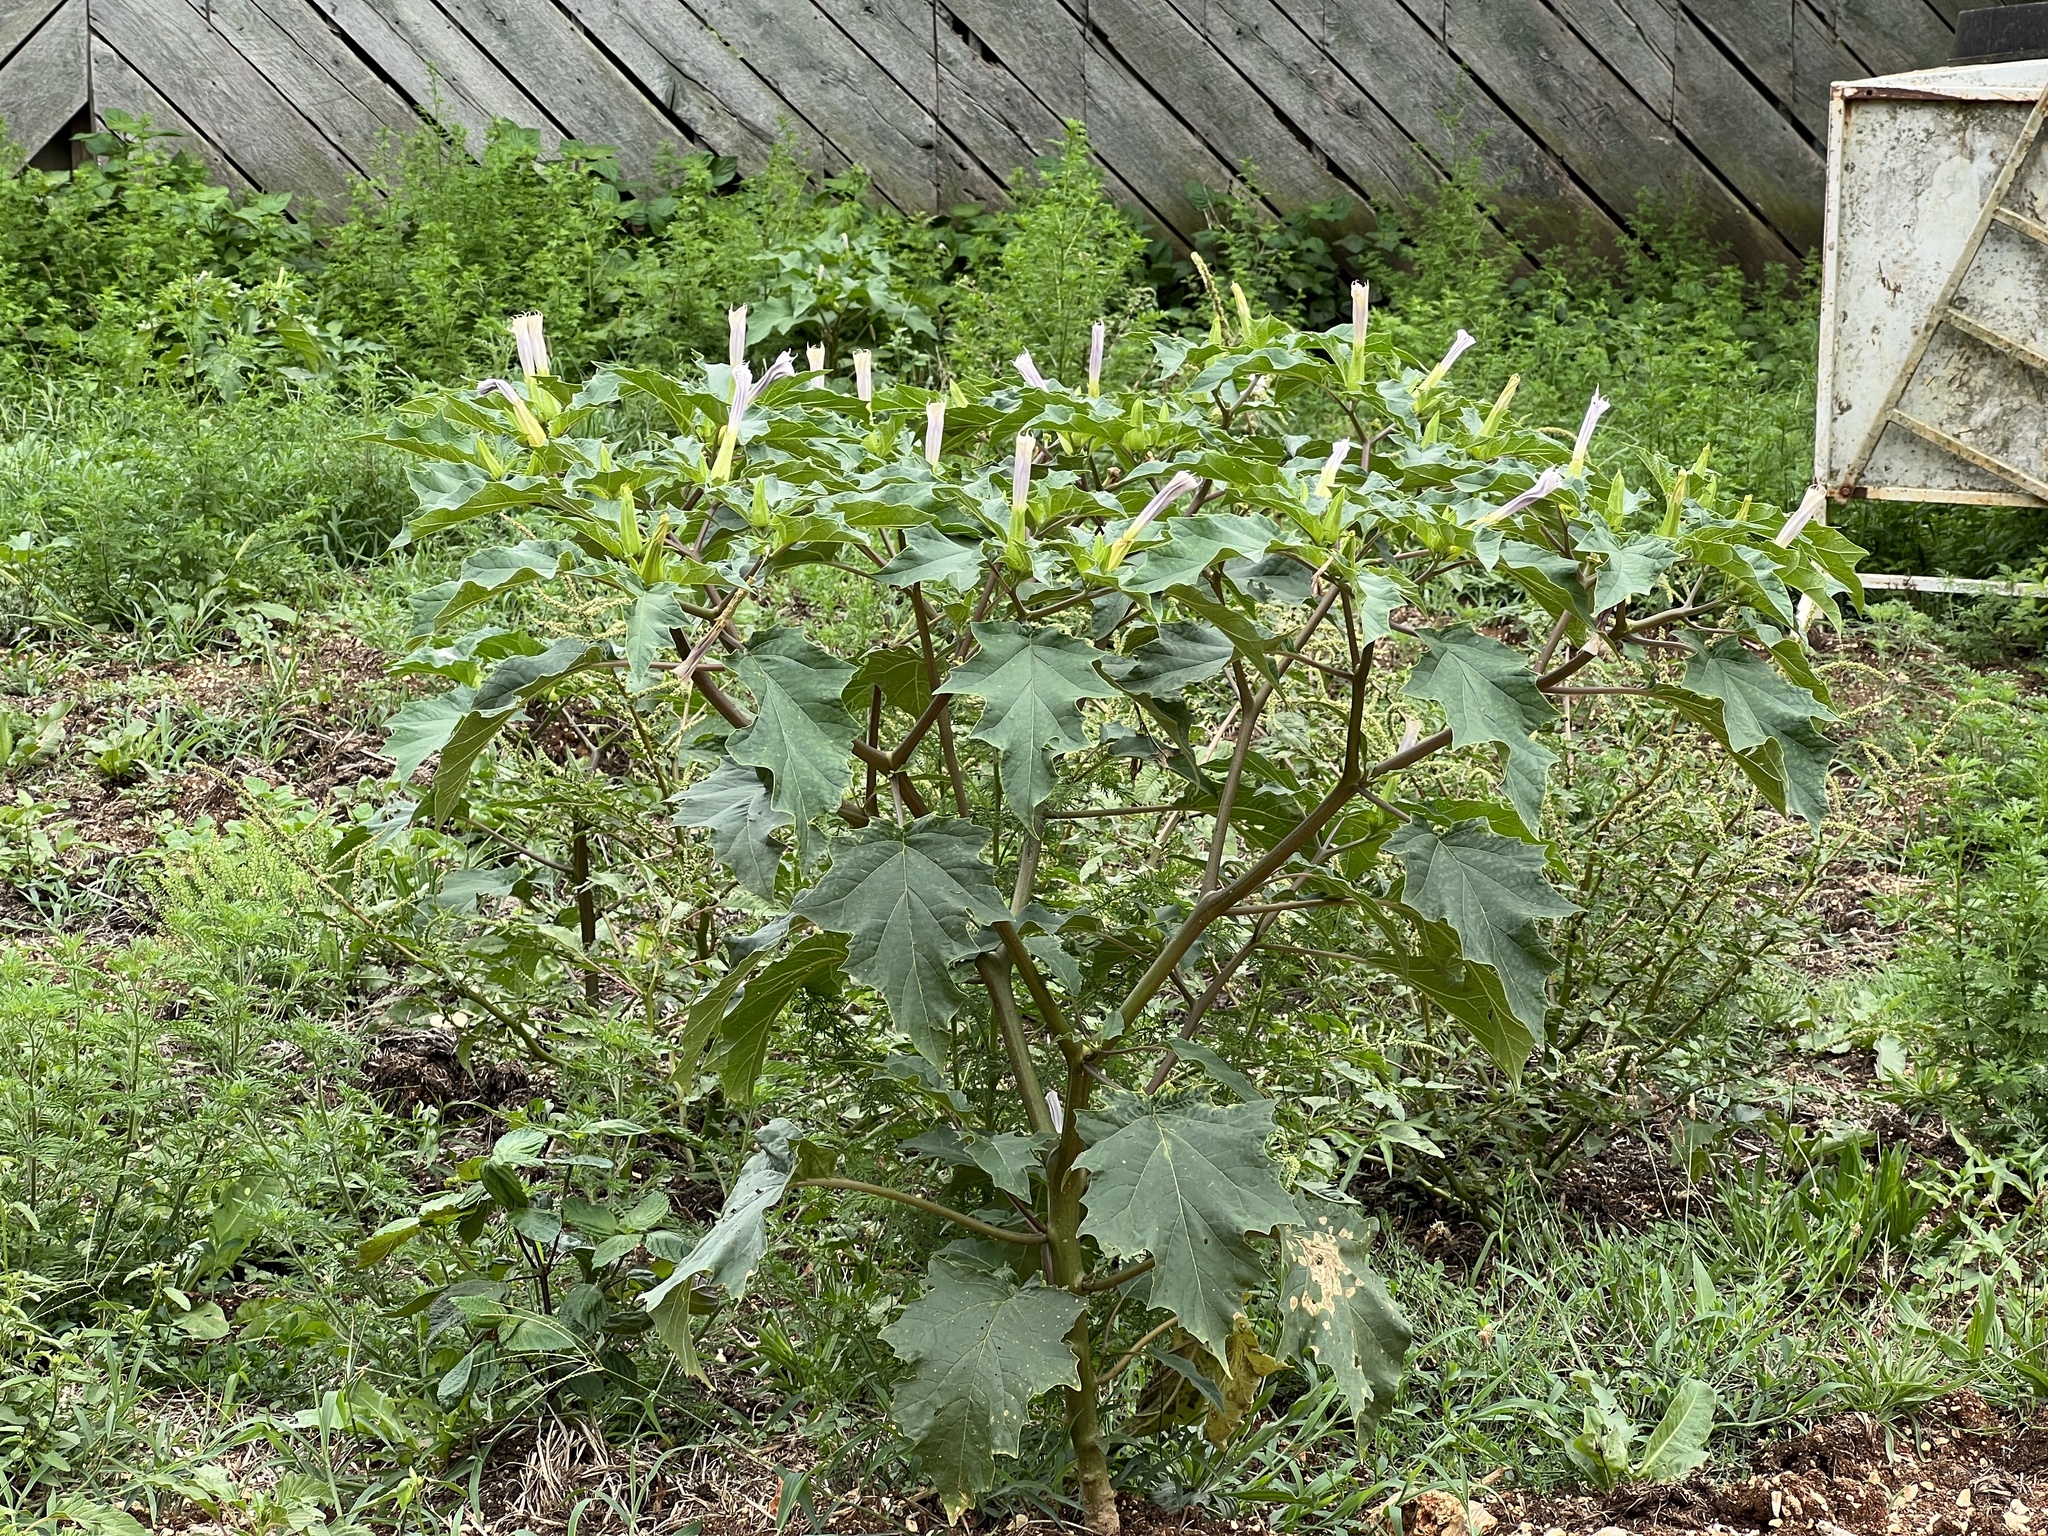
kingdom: Plantae
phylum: Tracheophyta
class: Magnoliopsida
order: Solanales
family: Solanaceae
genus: Datura
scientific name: Datura stramonium
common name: Thorn-apple
